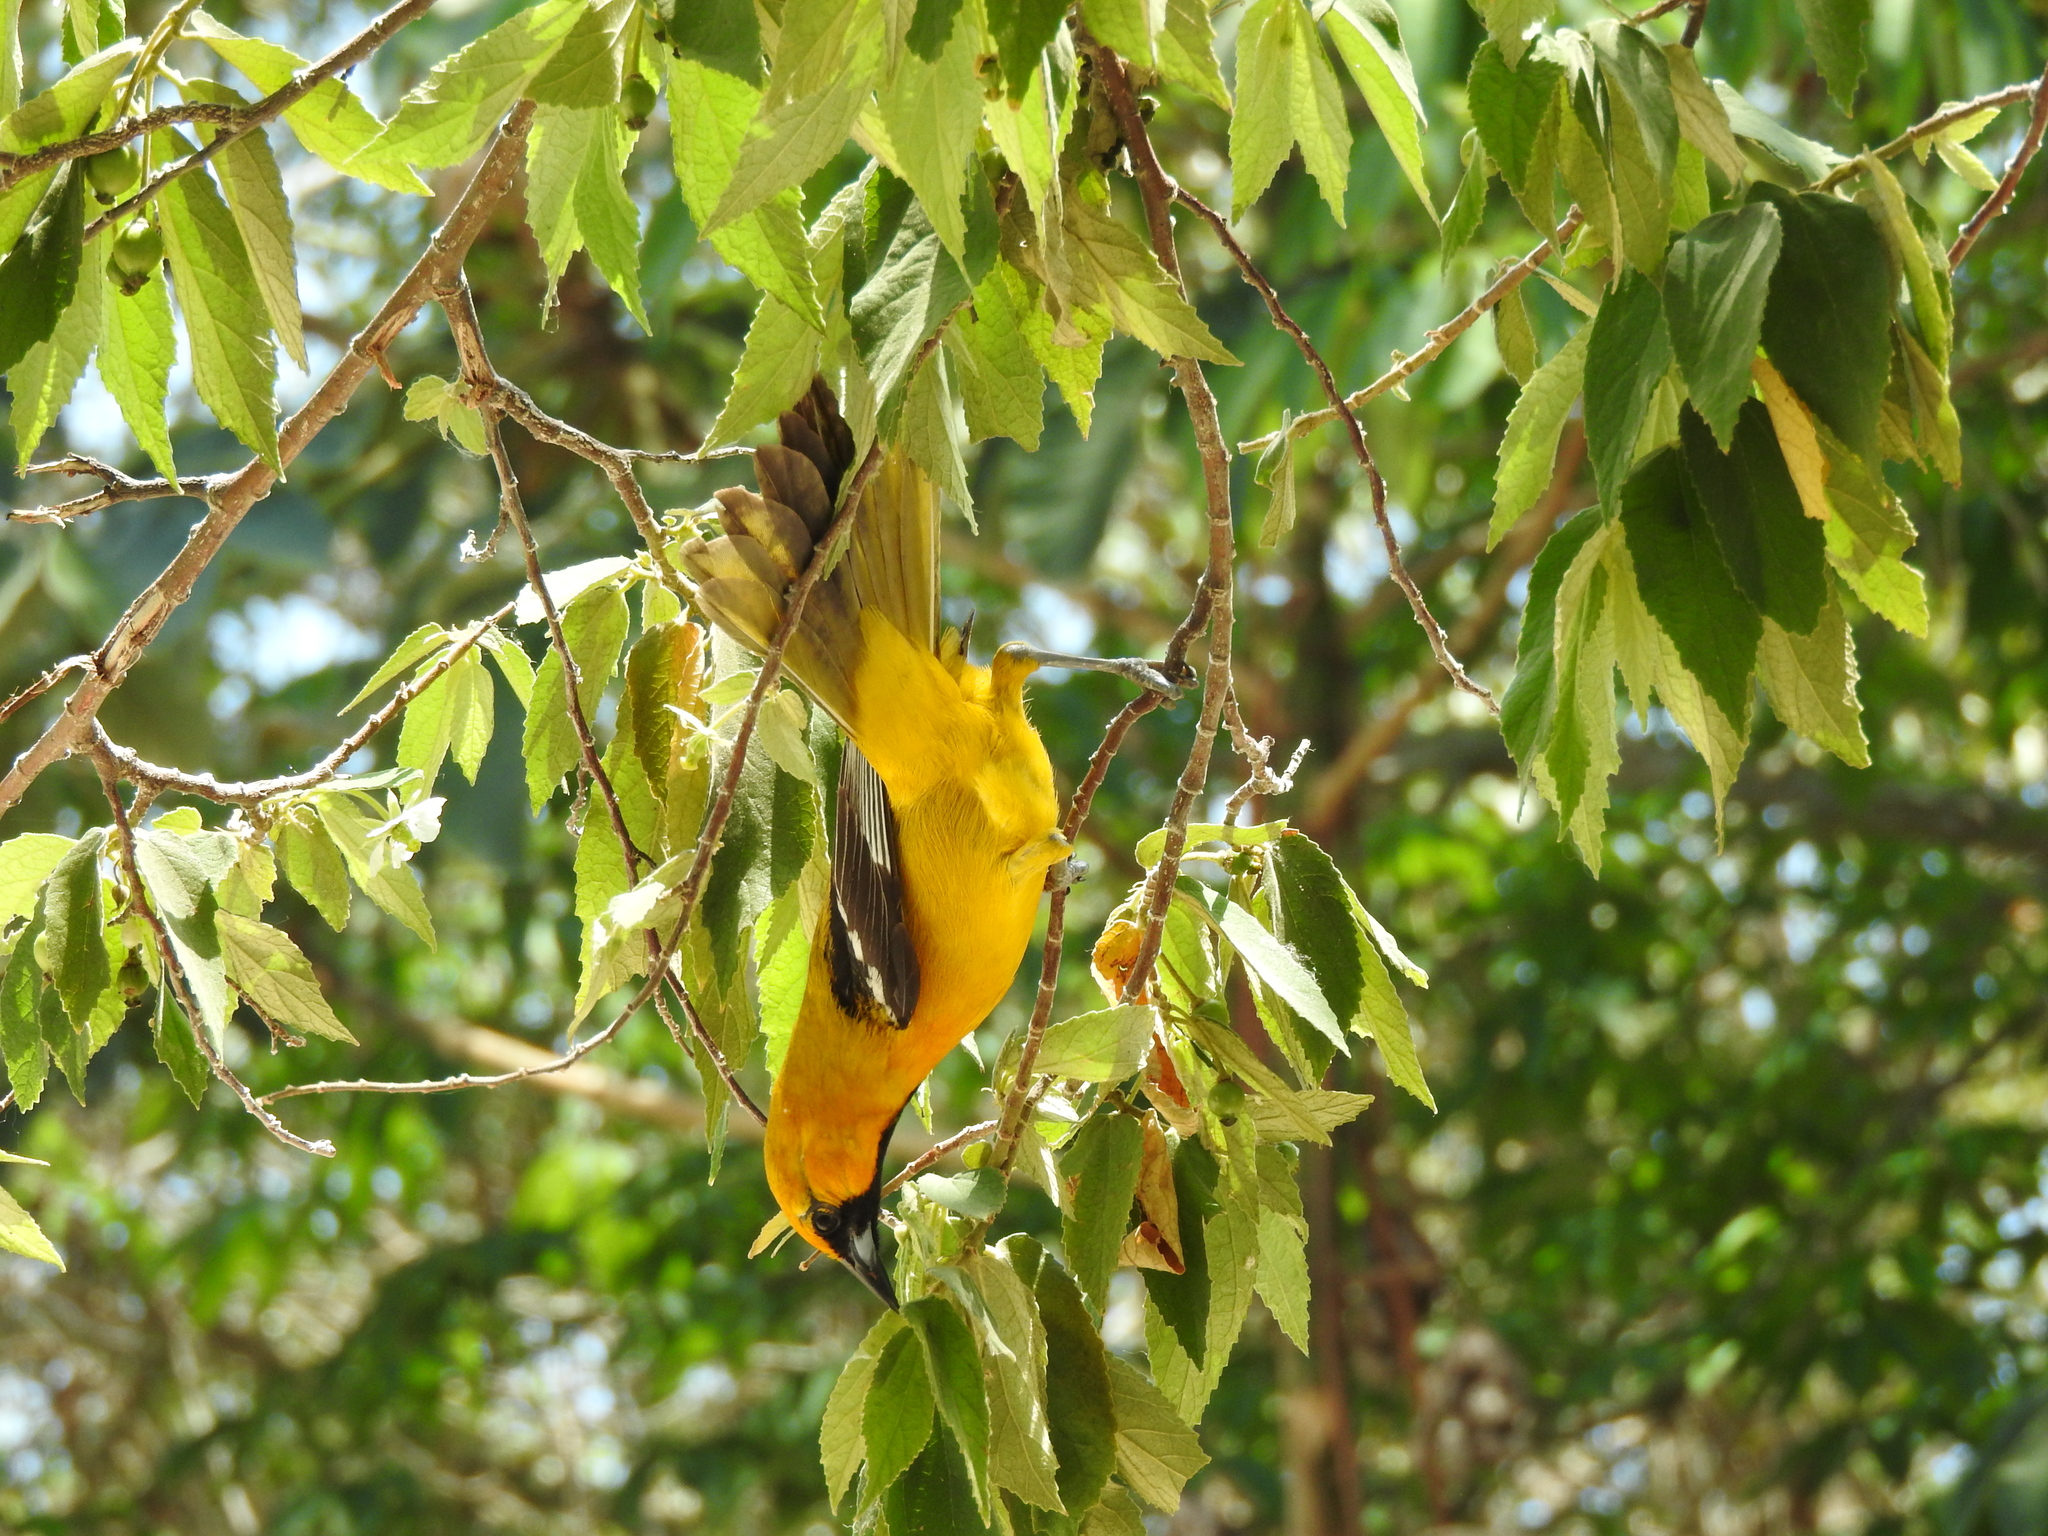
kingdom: Animalia
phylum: Chordata
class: Aves
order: Passeriformes
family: Icteridae
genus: Icterus
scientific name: Icterus auratus
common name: Orange oriole
